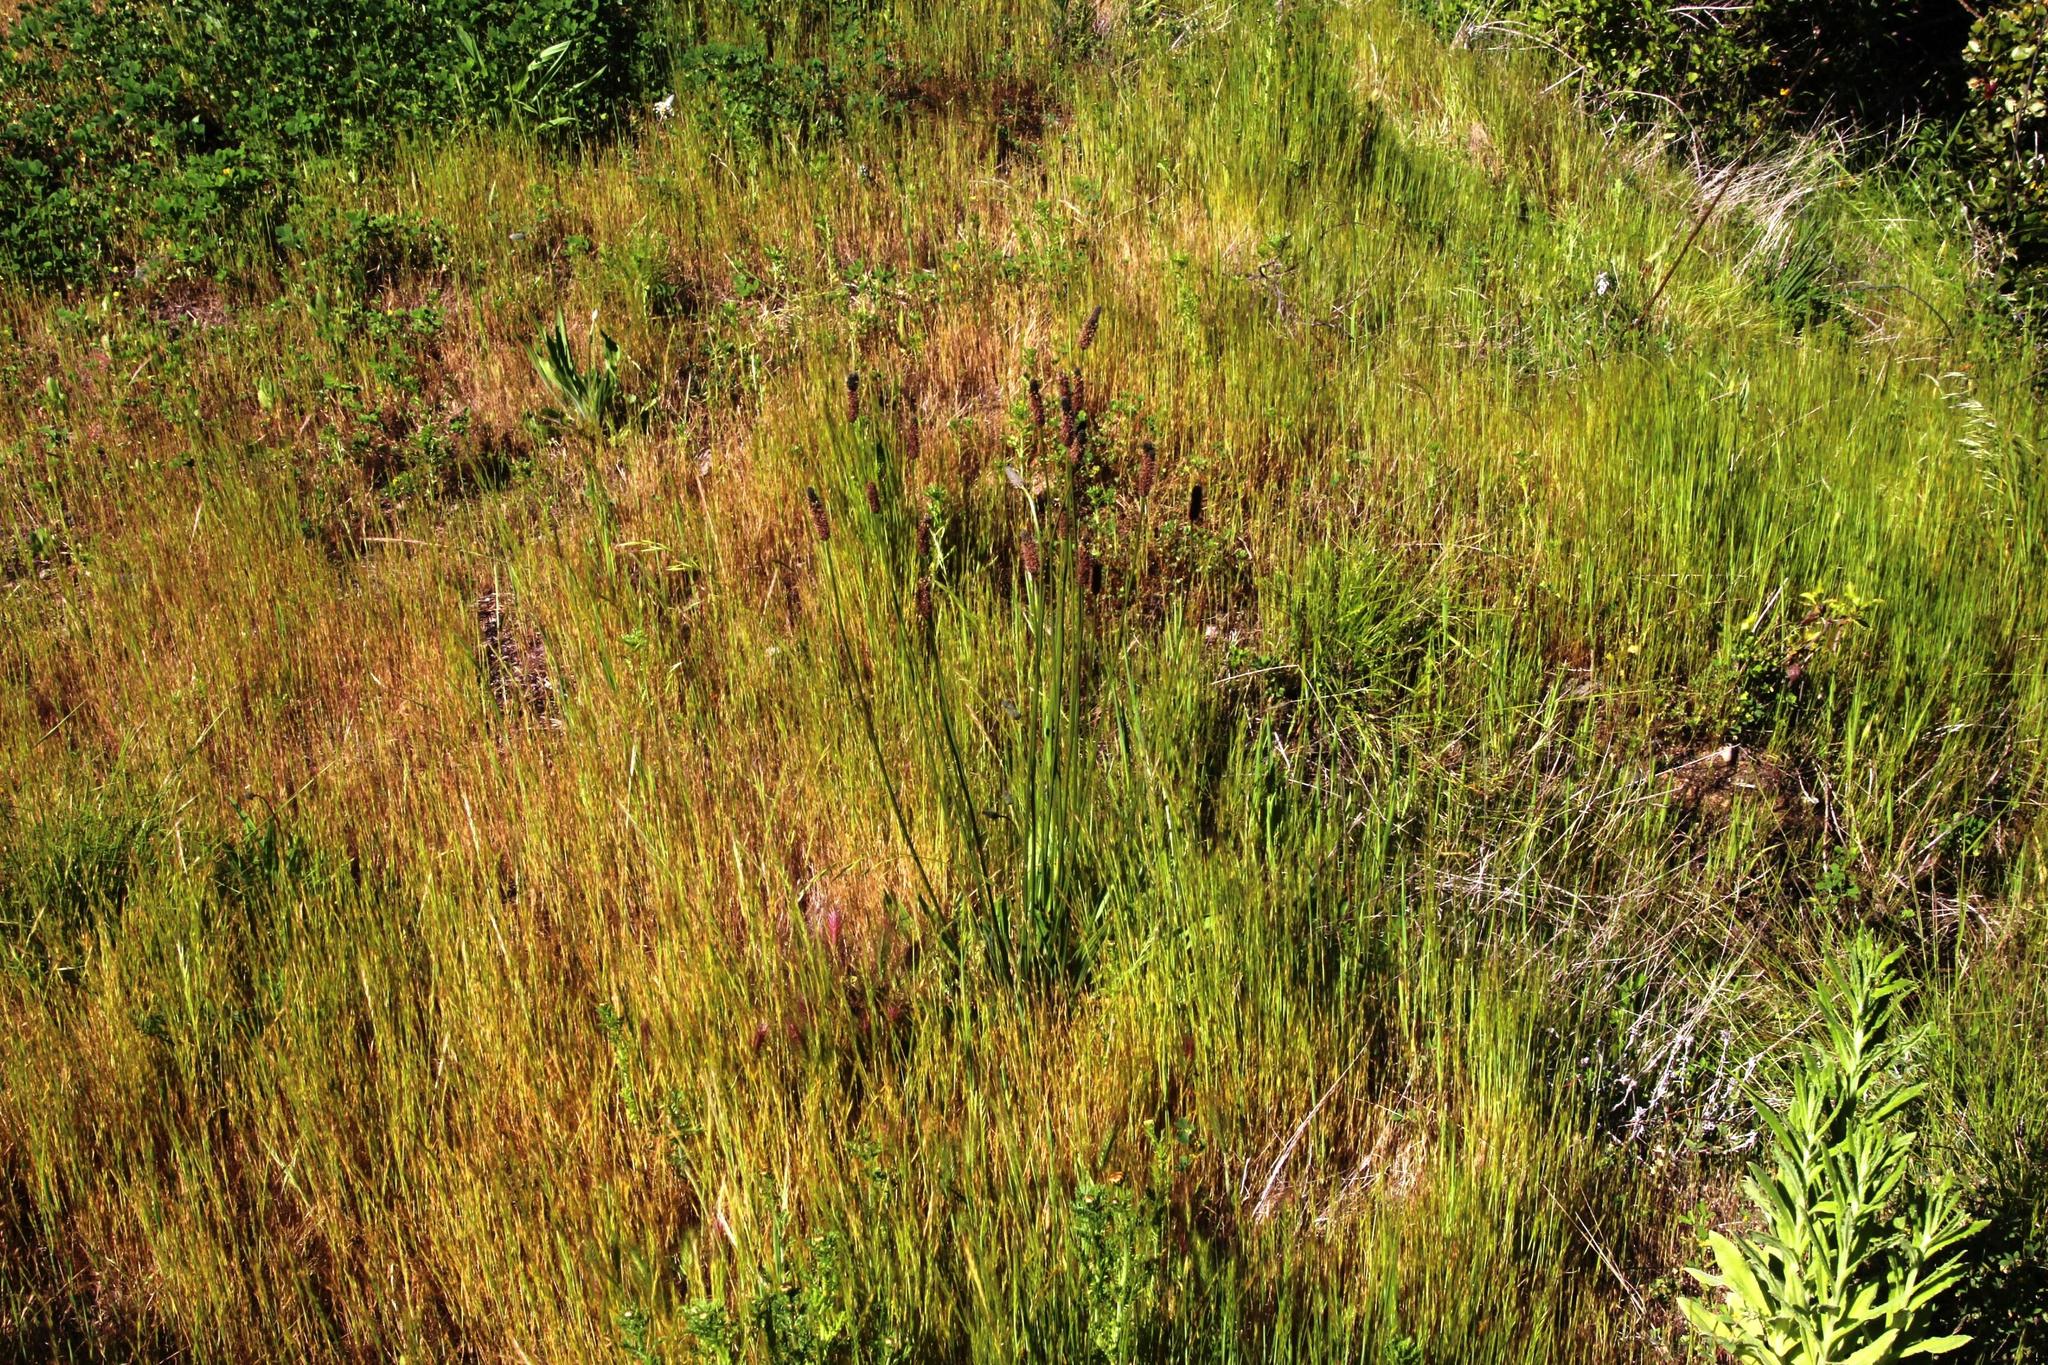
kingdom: Plantae
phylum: Tracheophyta
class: Magnoliopsida
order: Lamiales
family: Plantaginaceae
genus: Plantago
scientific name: Plantago lanceolata
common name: Ribwort plantain
